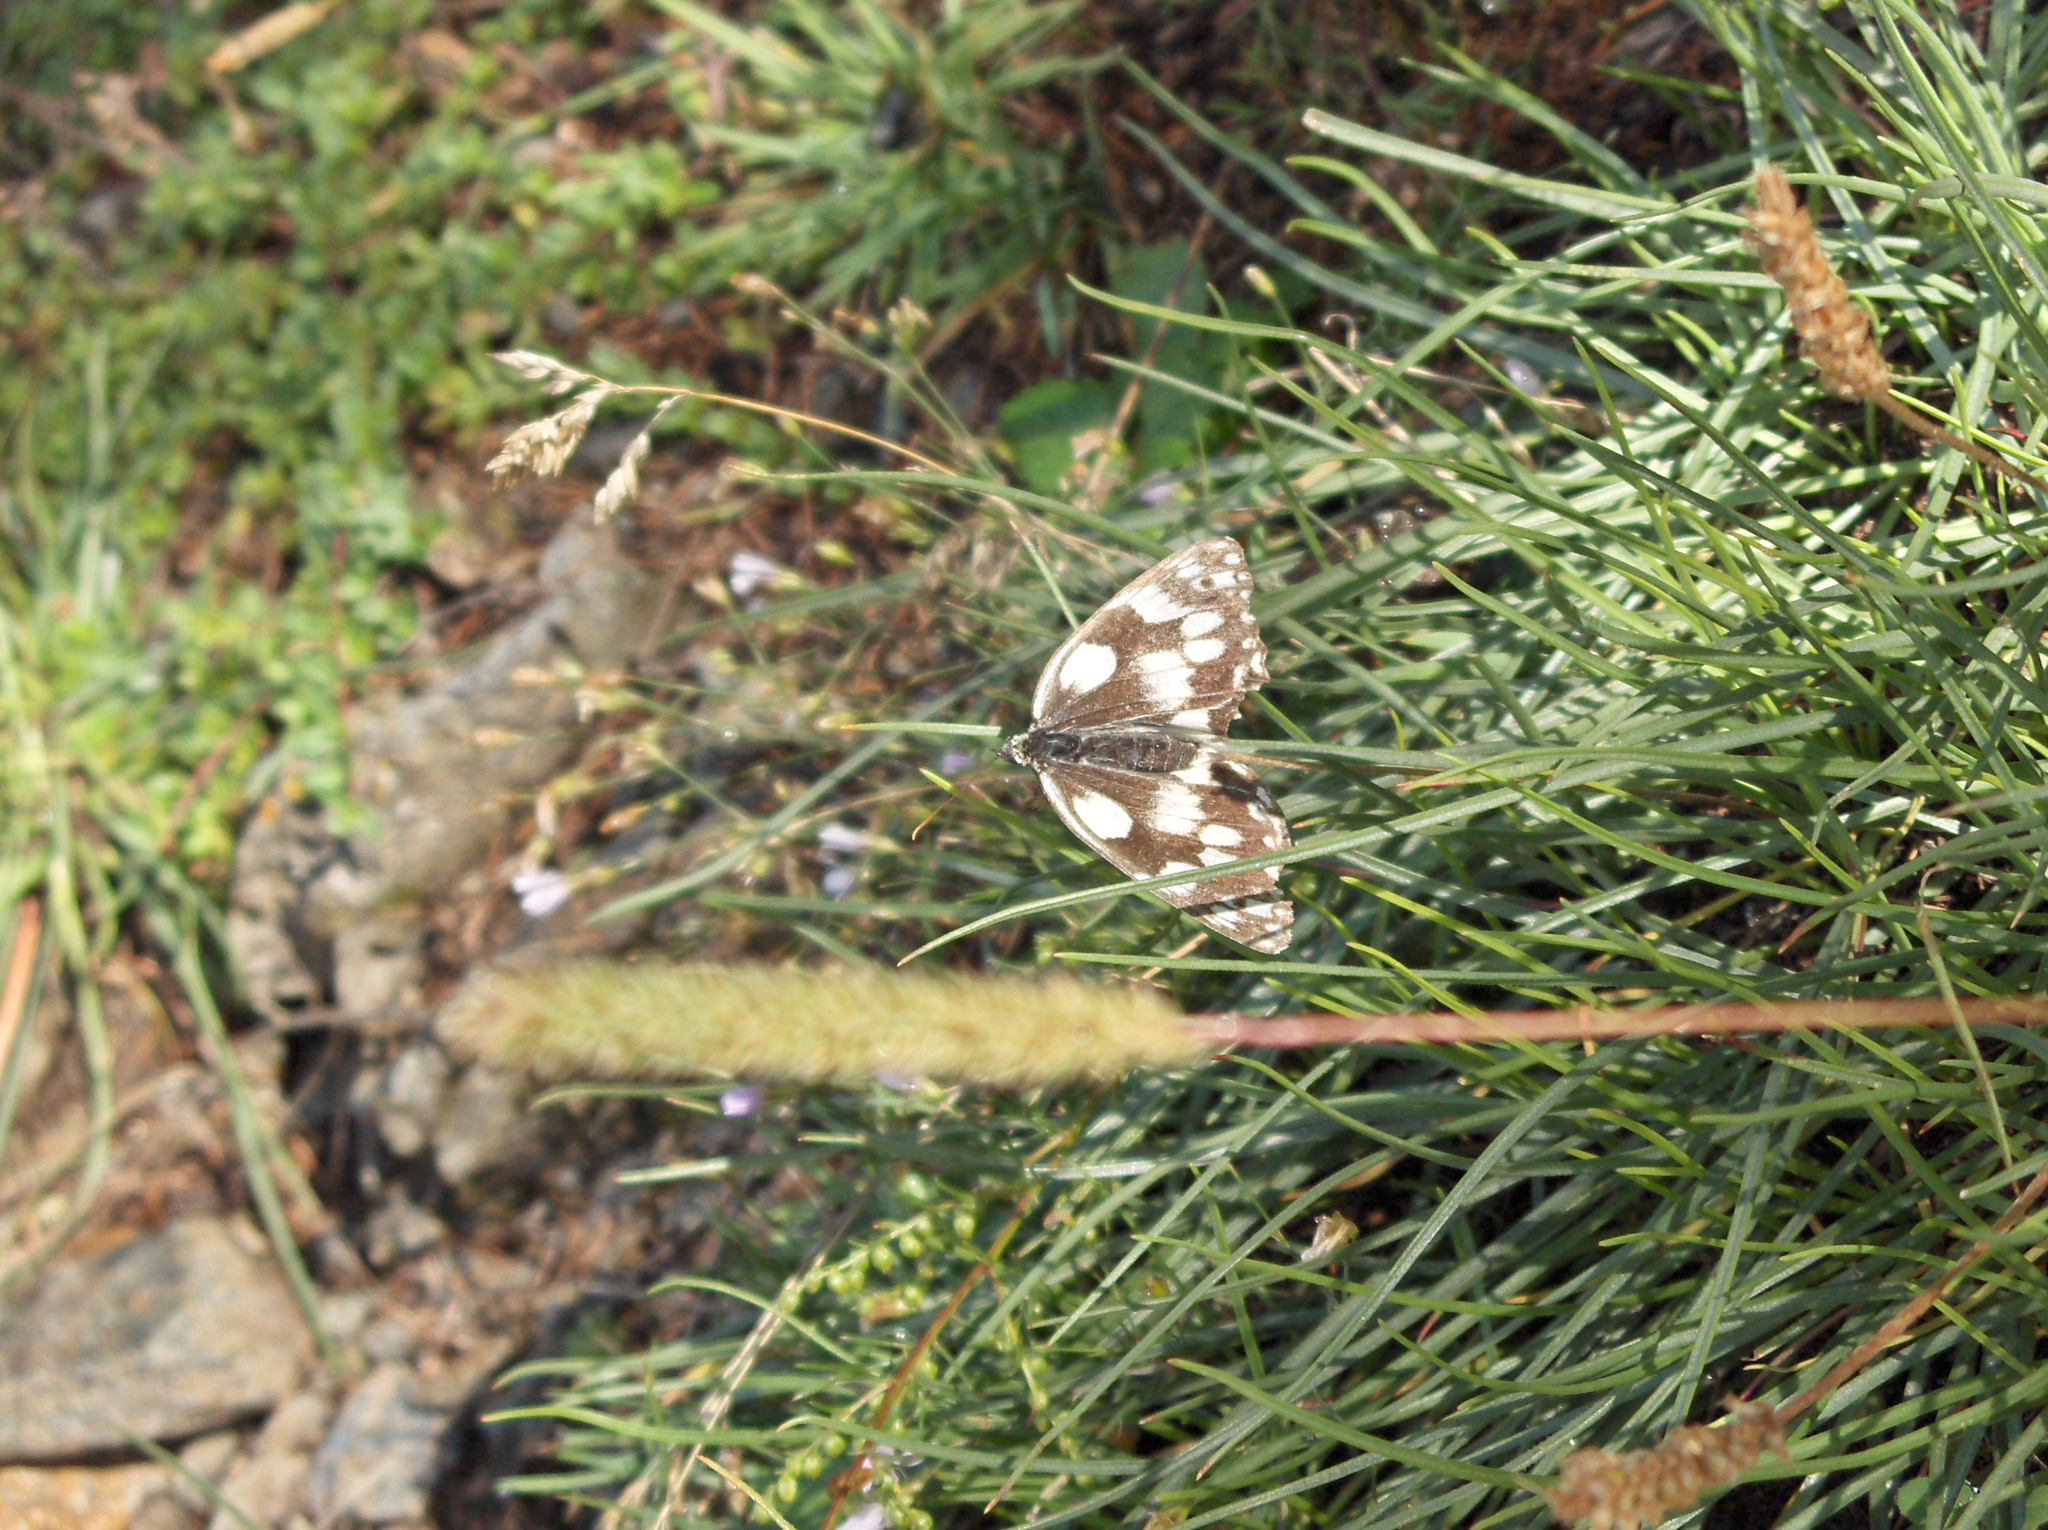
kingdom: Animalia
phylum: Arthropoda
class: Insecta
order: Lepidoptera
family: Nymphalidae
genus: Melanargia
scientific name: Melanargia galathea
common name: Marbled white
